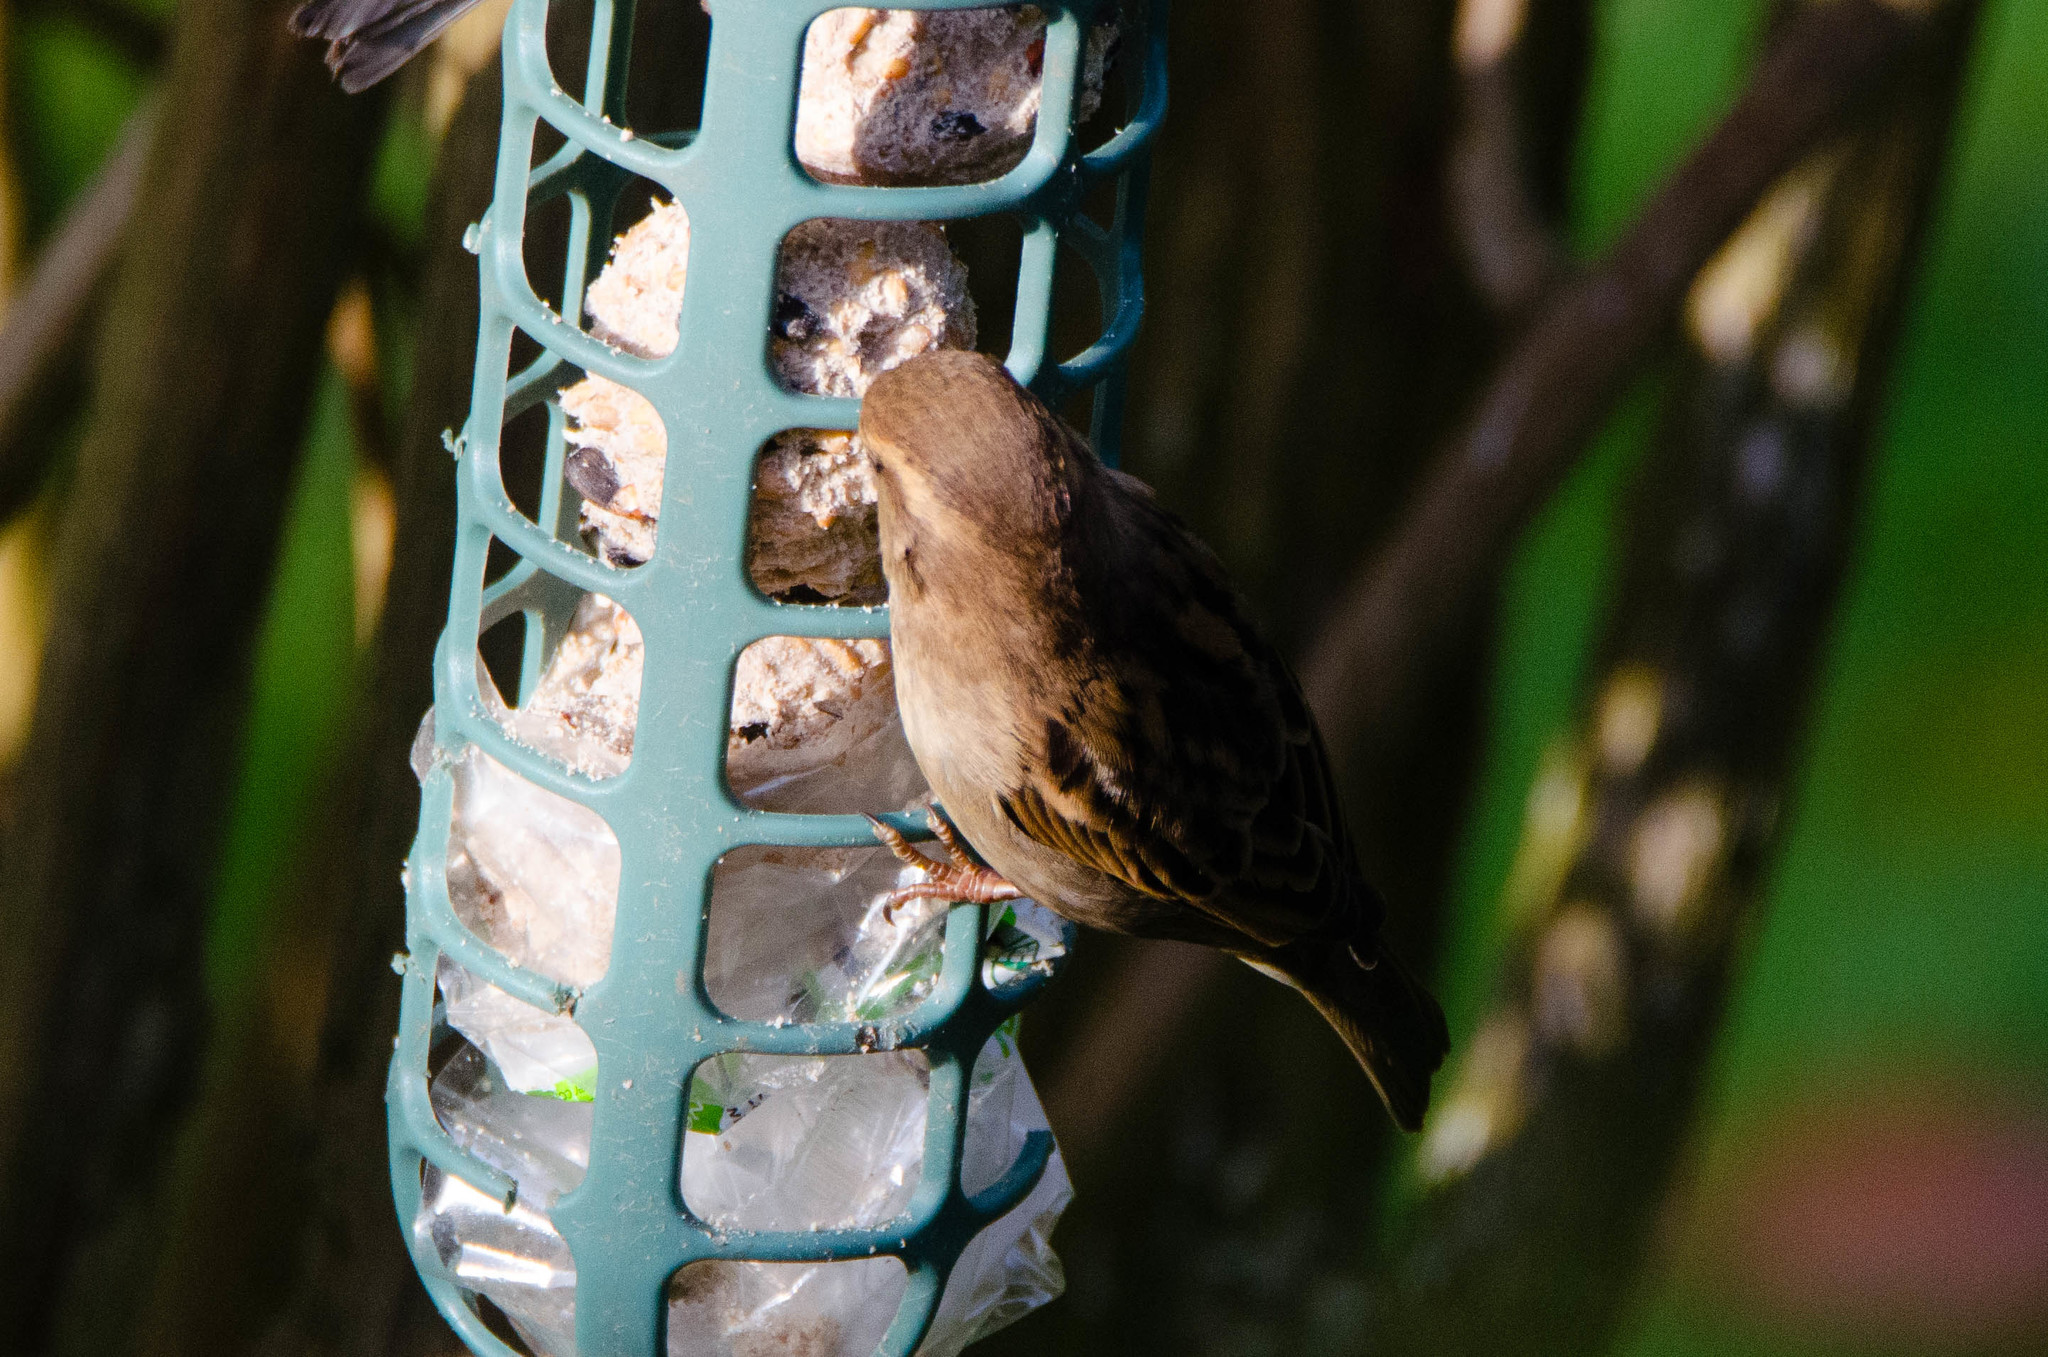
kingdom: Animalia
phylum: Chordata
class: Aves
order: Passeriformes
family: Passeridae
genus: Passer
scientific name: Passer domesticus
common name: House sparrow
